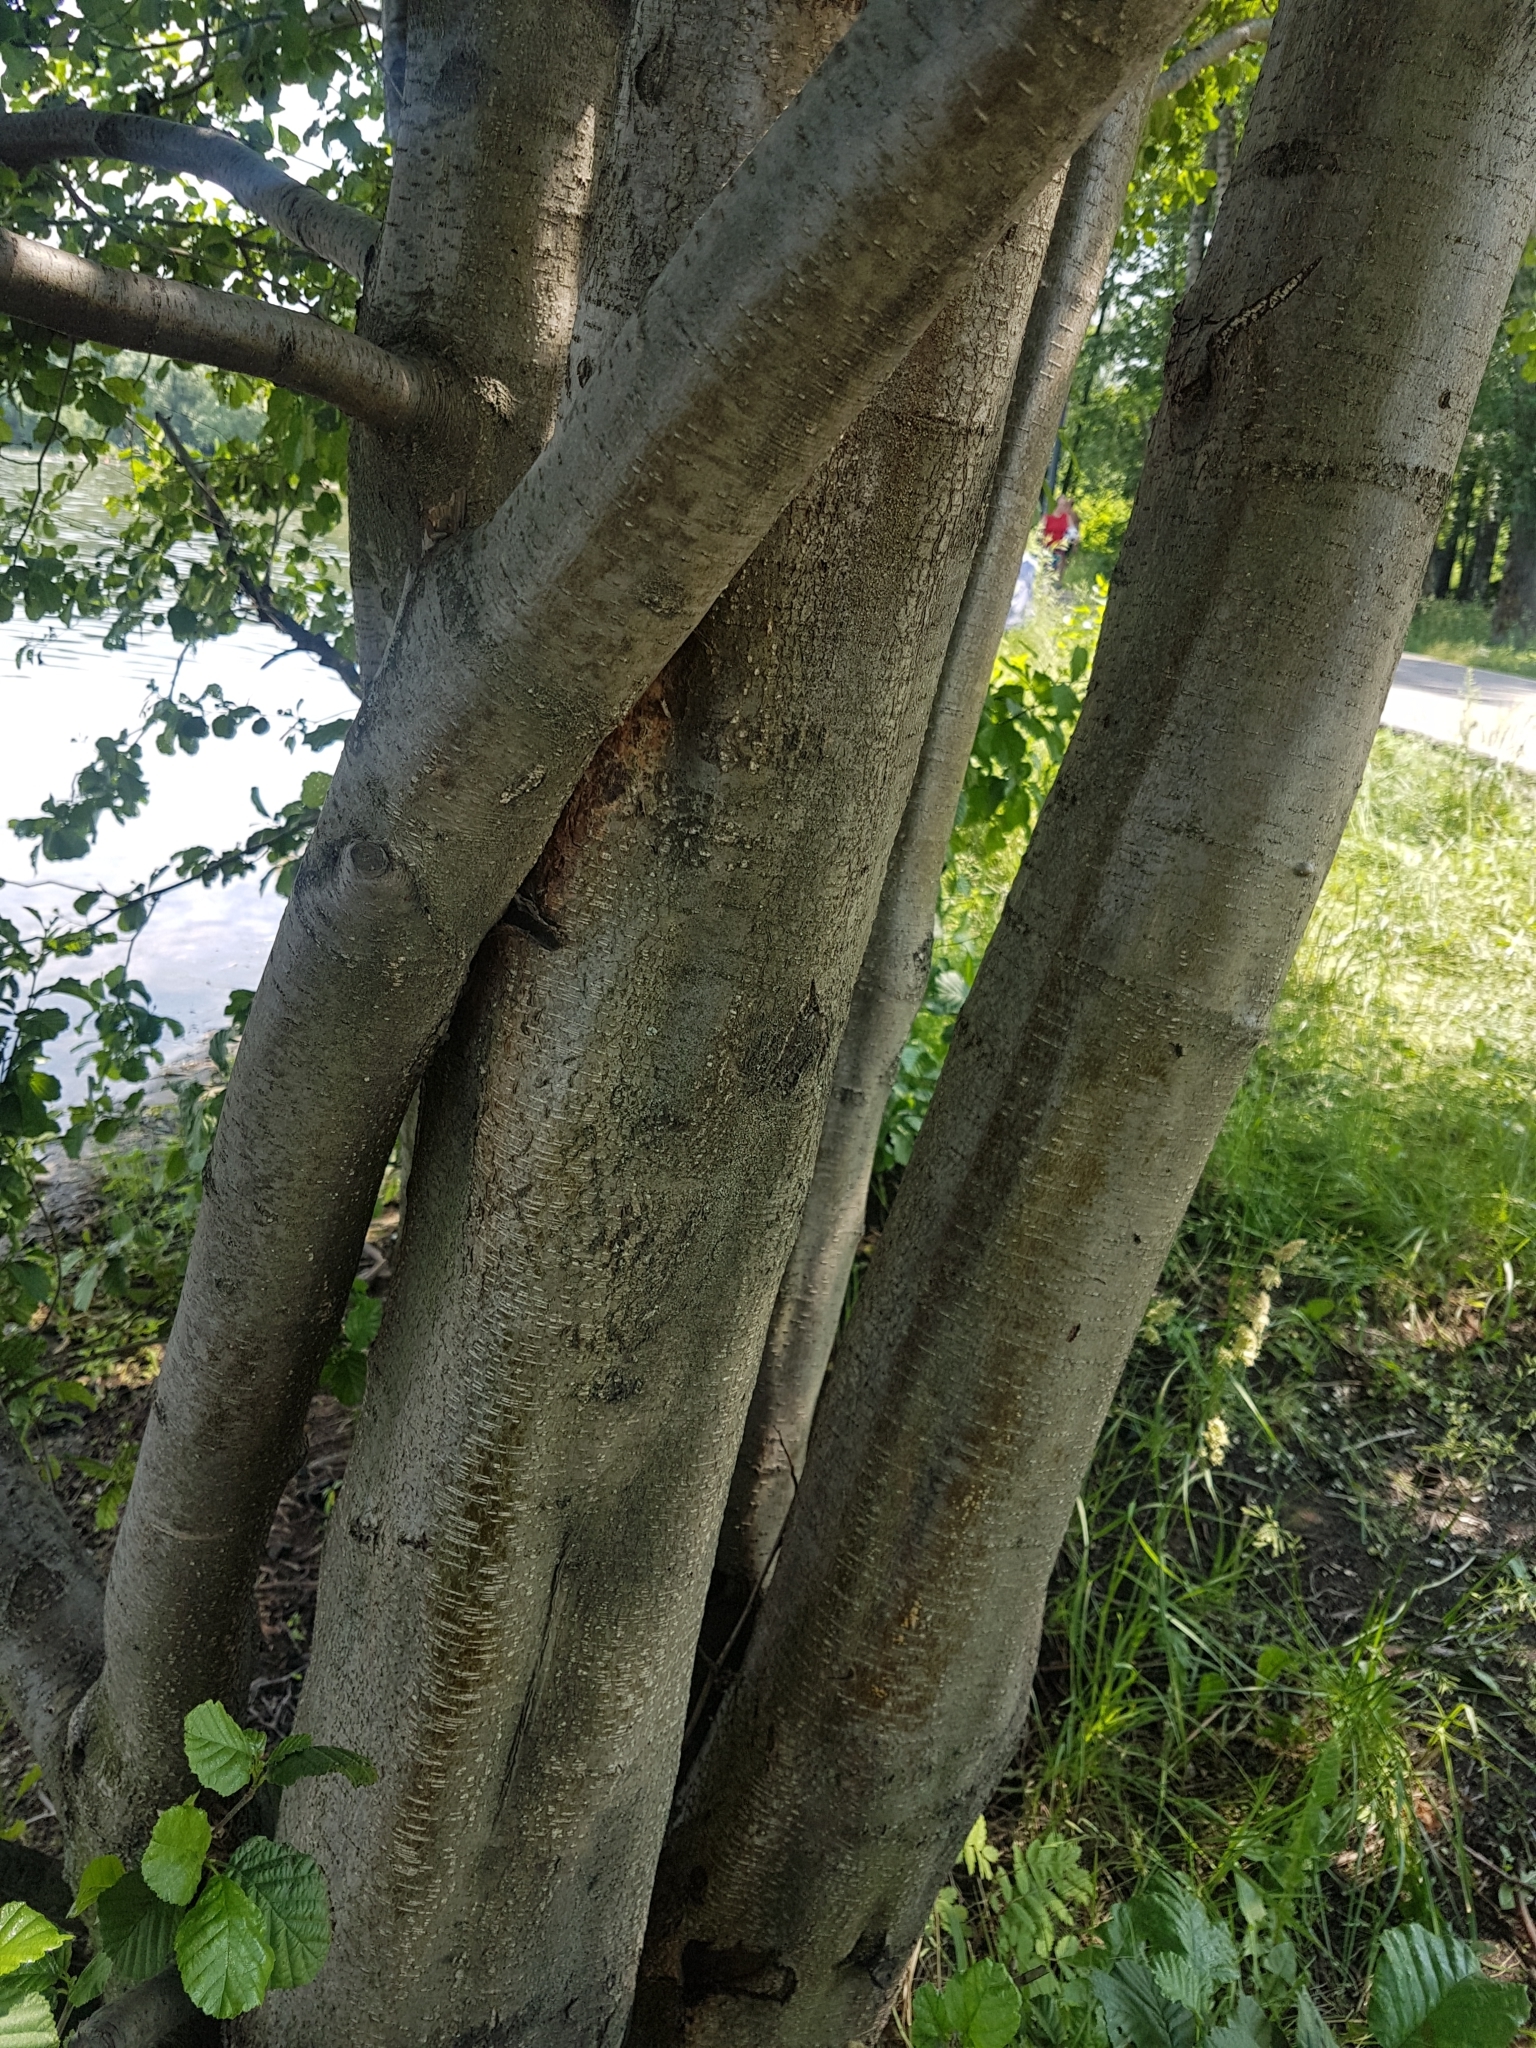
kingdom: Plantae
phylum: Tracheophyta
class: Magnoliopsida
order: Fagales
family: Betulaceae
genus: Alnus
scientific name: Alnus glutinosa
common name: Black alder
